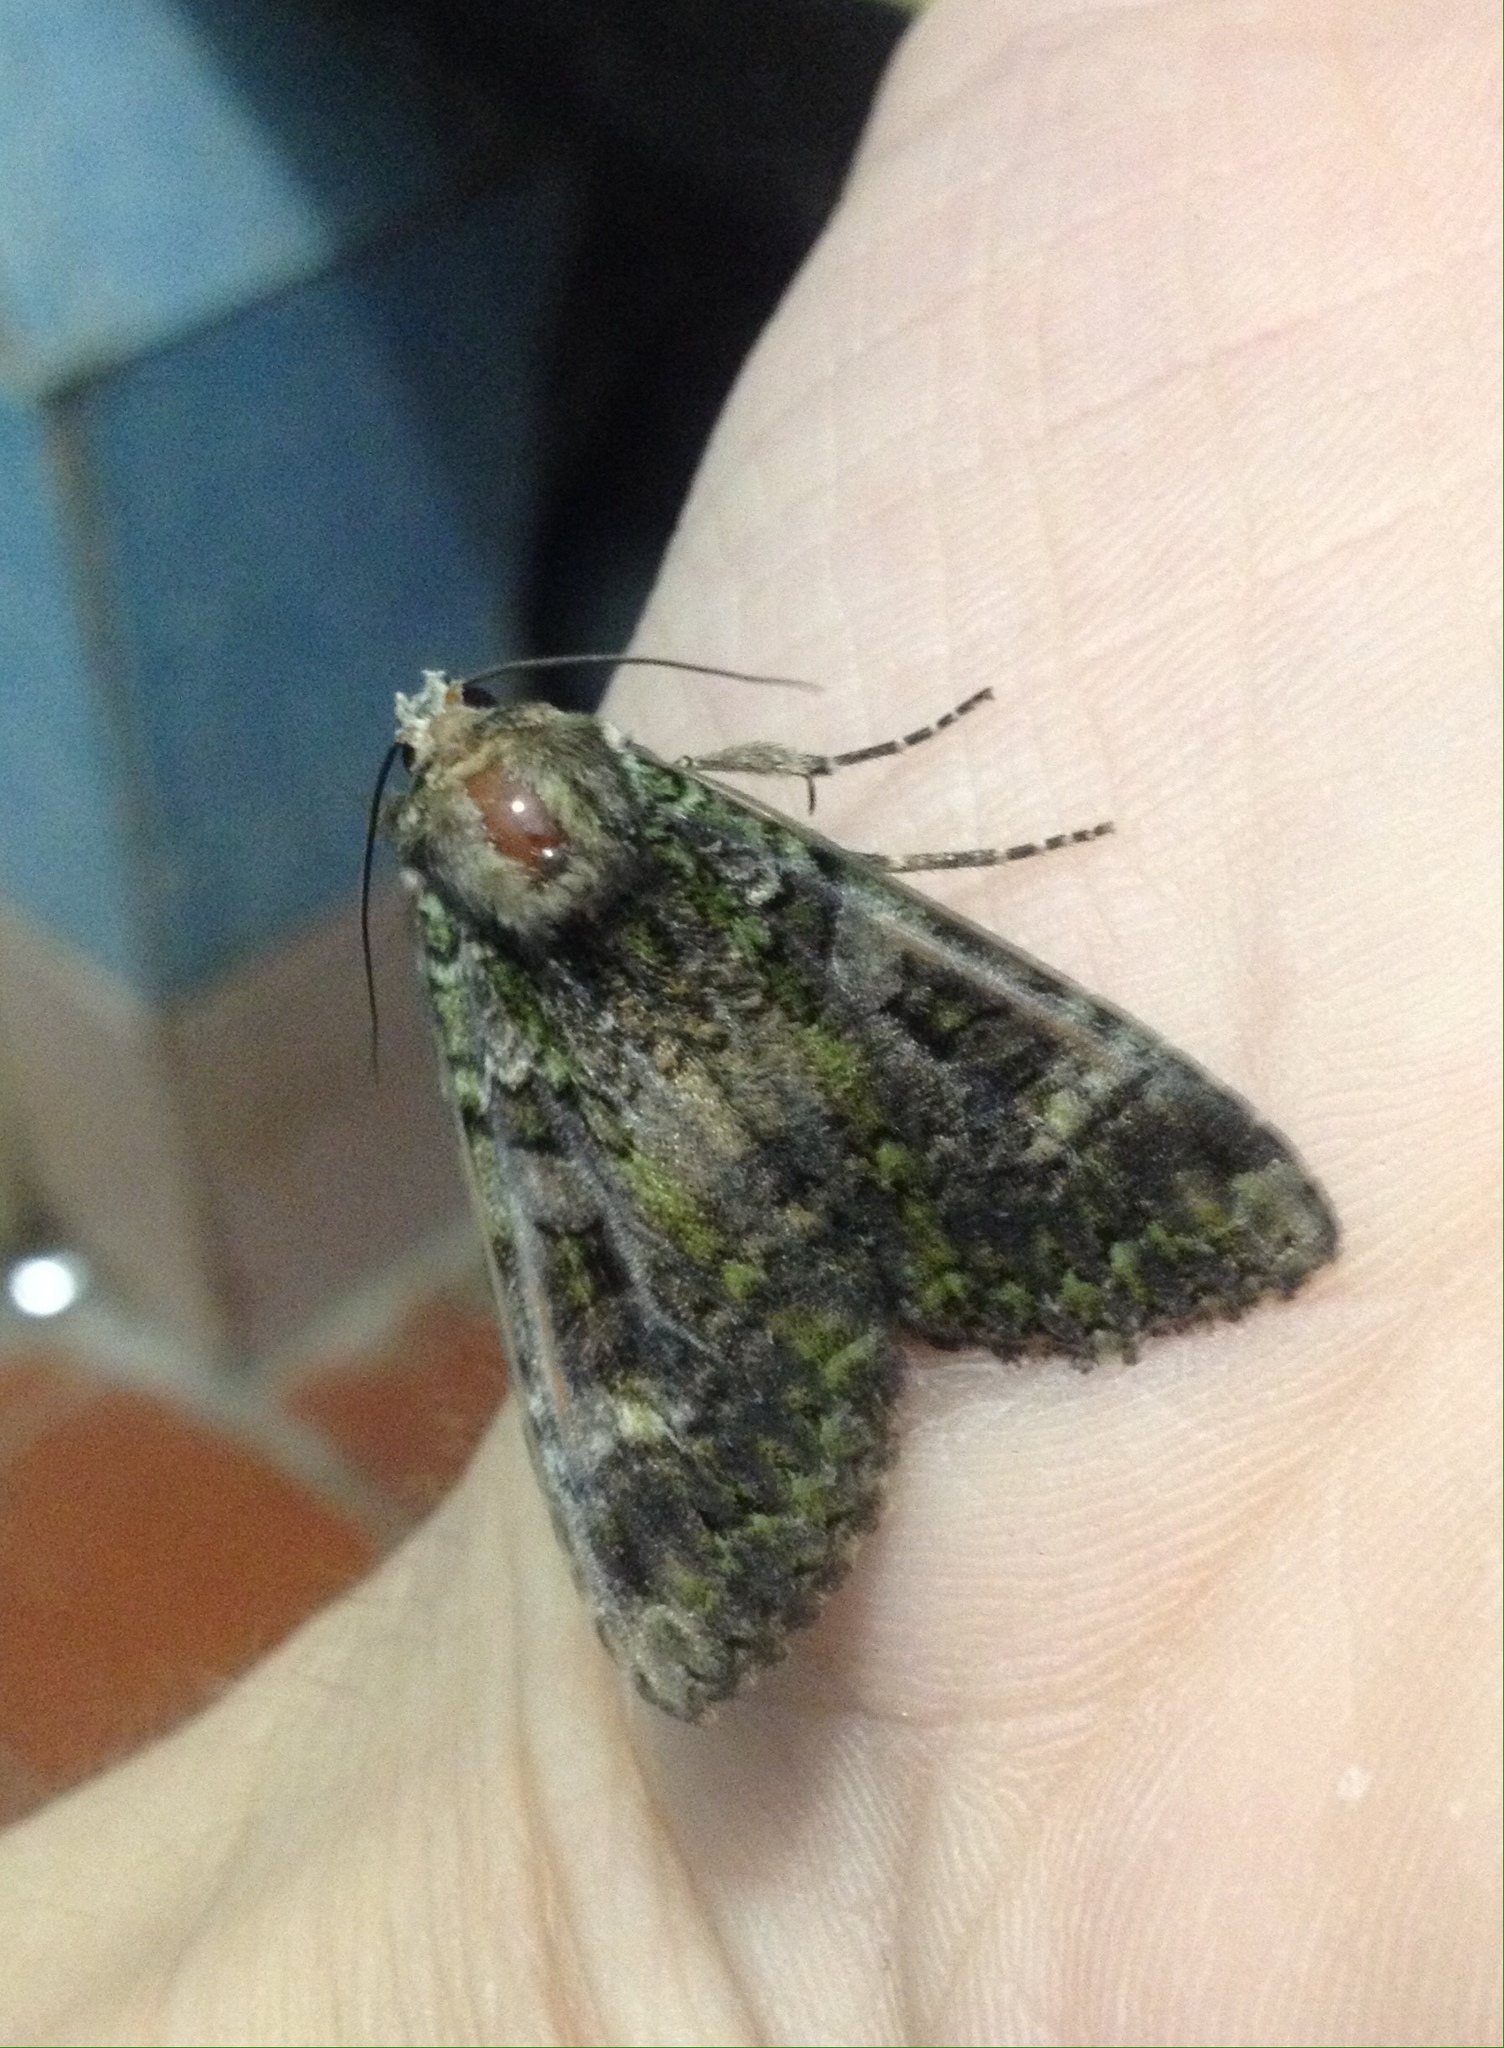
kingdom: Animalia
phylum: Arthropoda
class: Insecta
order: Lepidoptera
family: Noctuidae
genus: Anaplectoides
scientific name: Anaplectoides prasina
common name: Green arches
